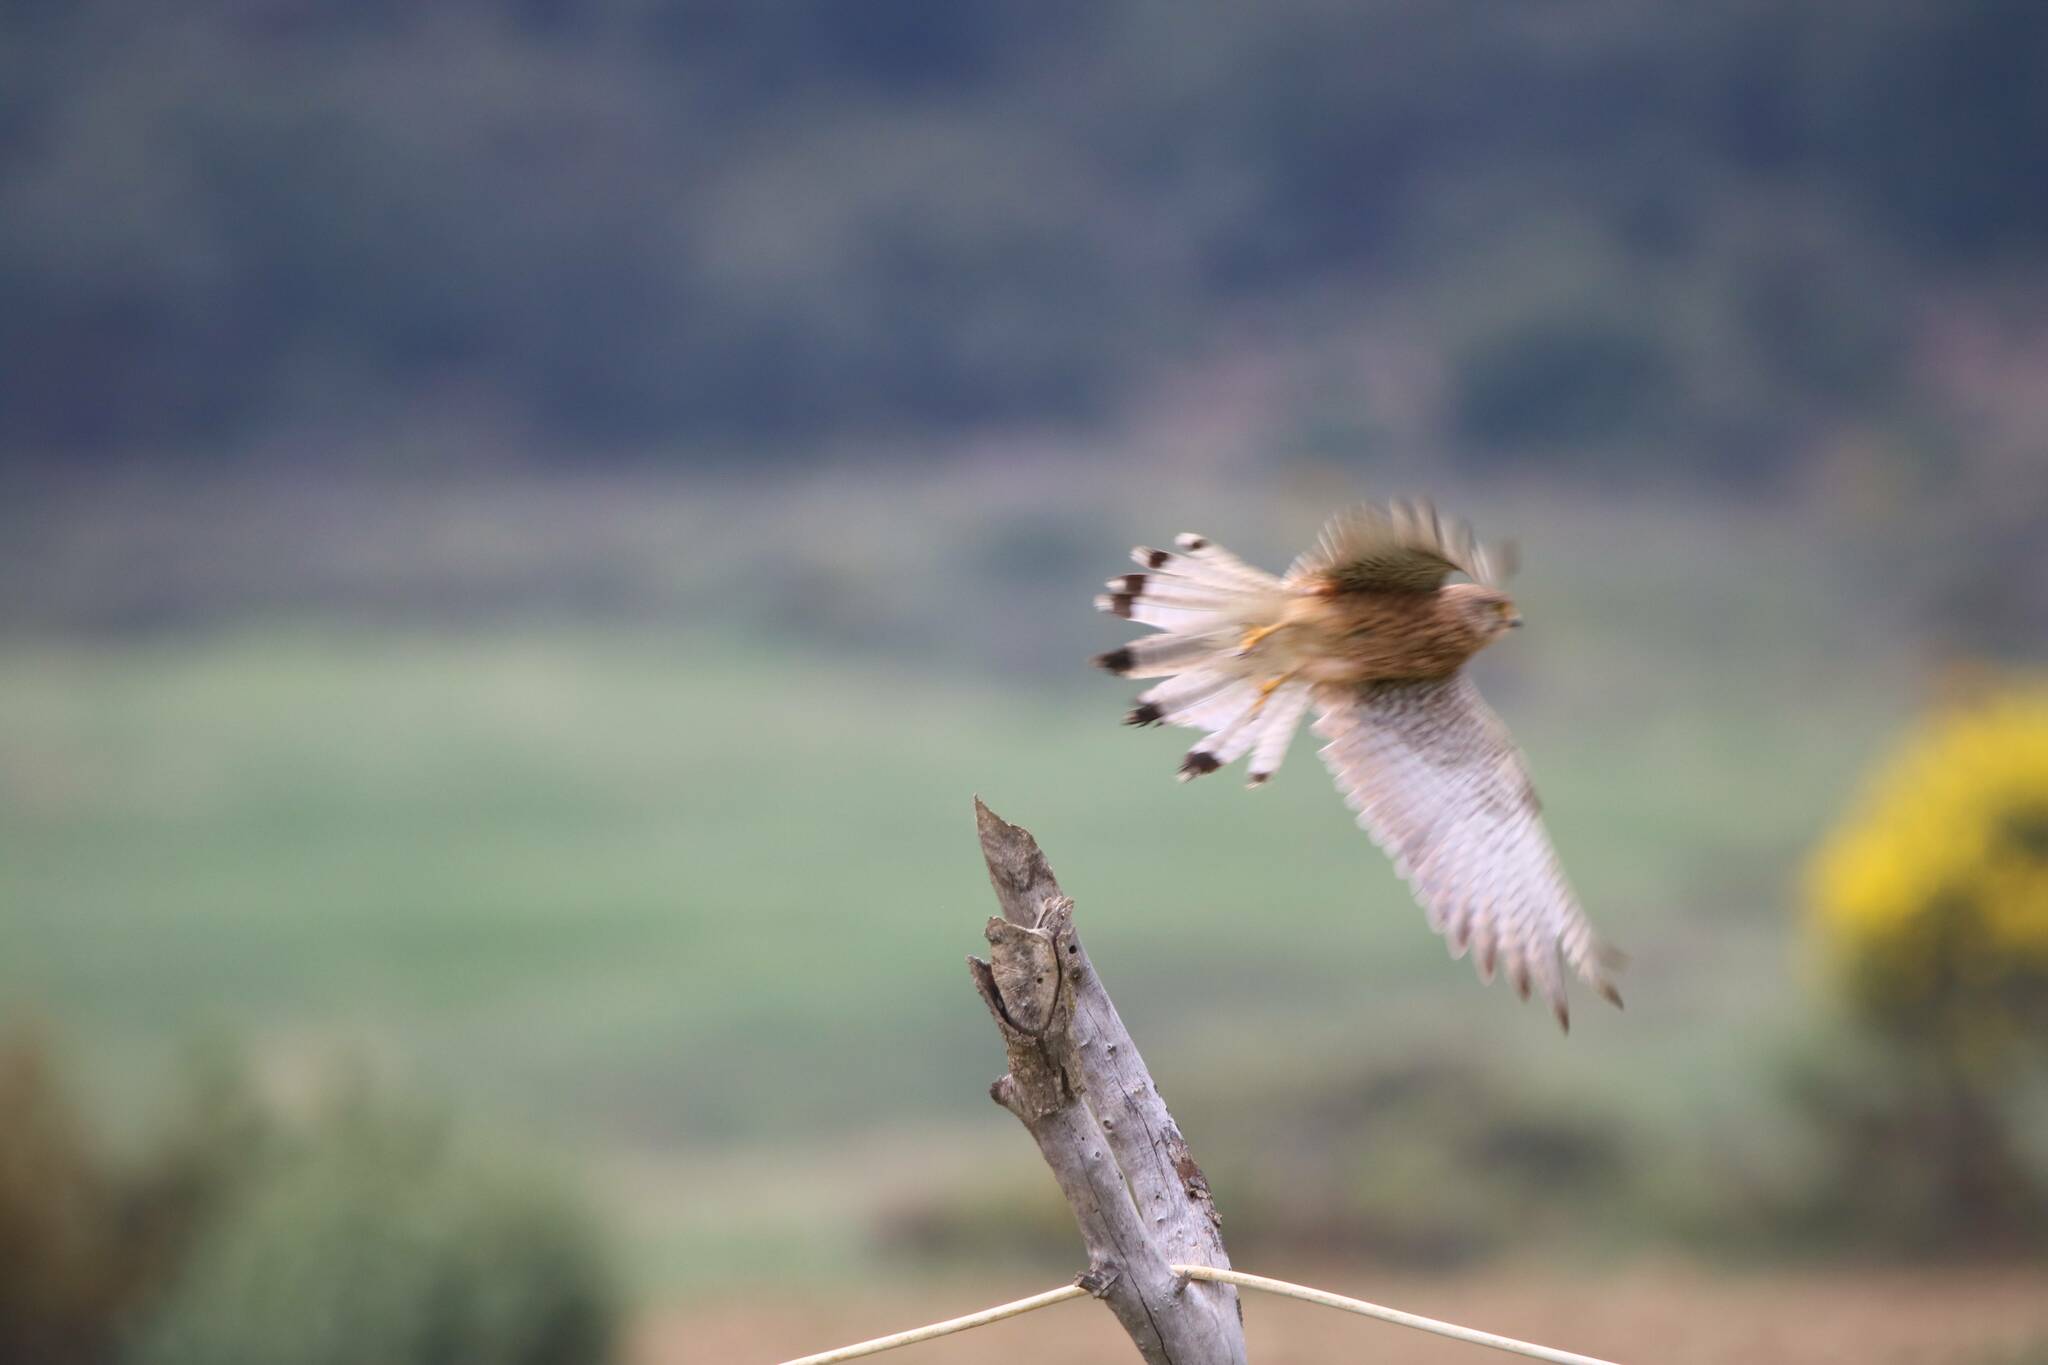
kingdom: Animalia
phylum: Chordata
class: Aves
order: Falconiformes
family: Falconidae
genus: Falco
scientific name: Falco tinnunculus
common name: Common kestrel
